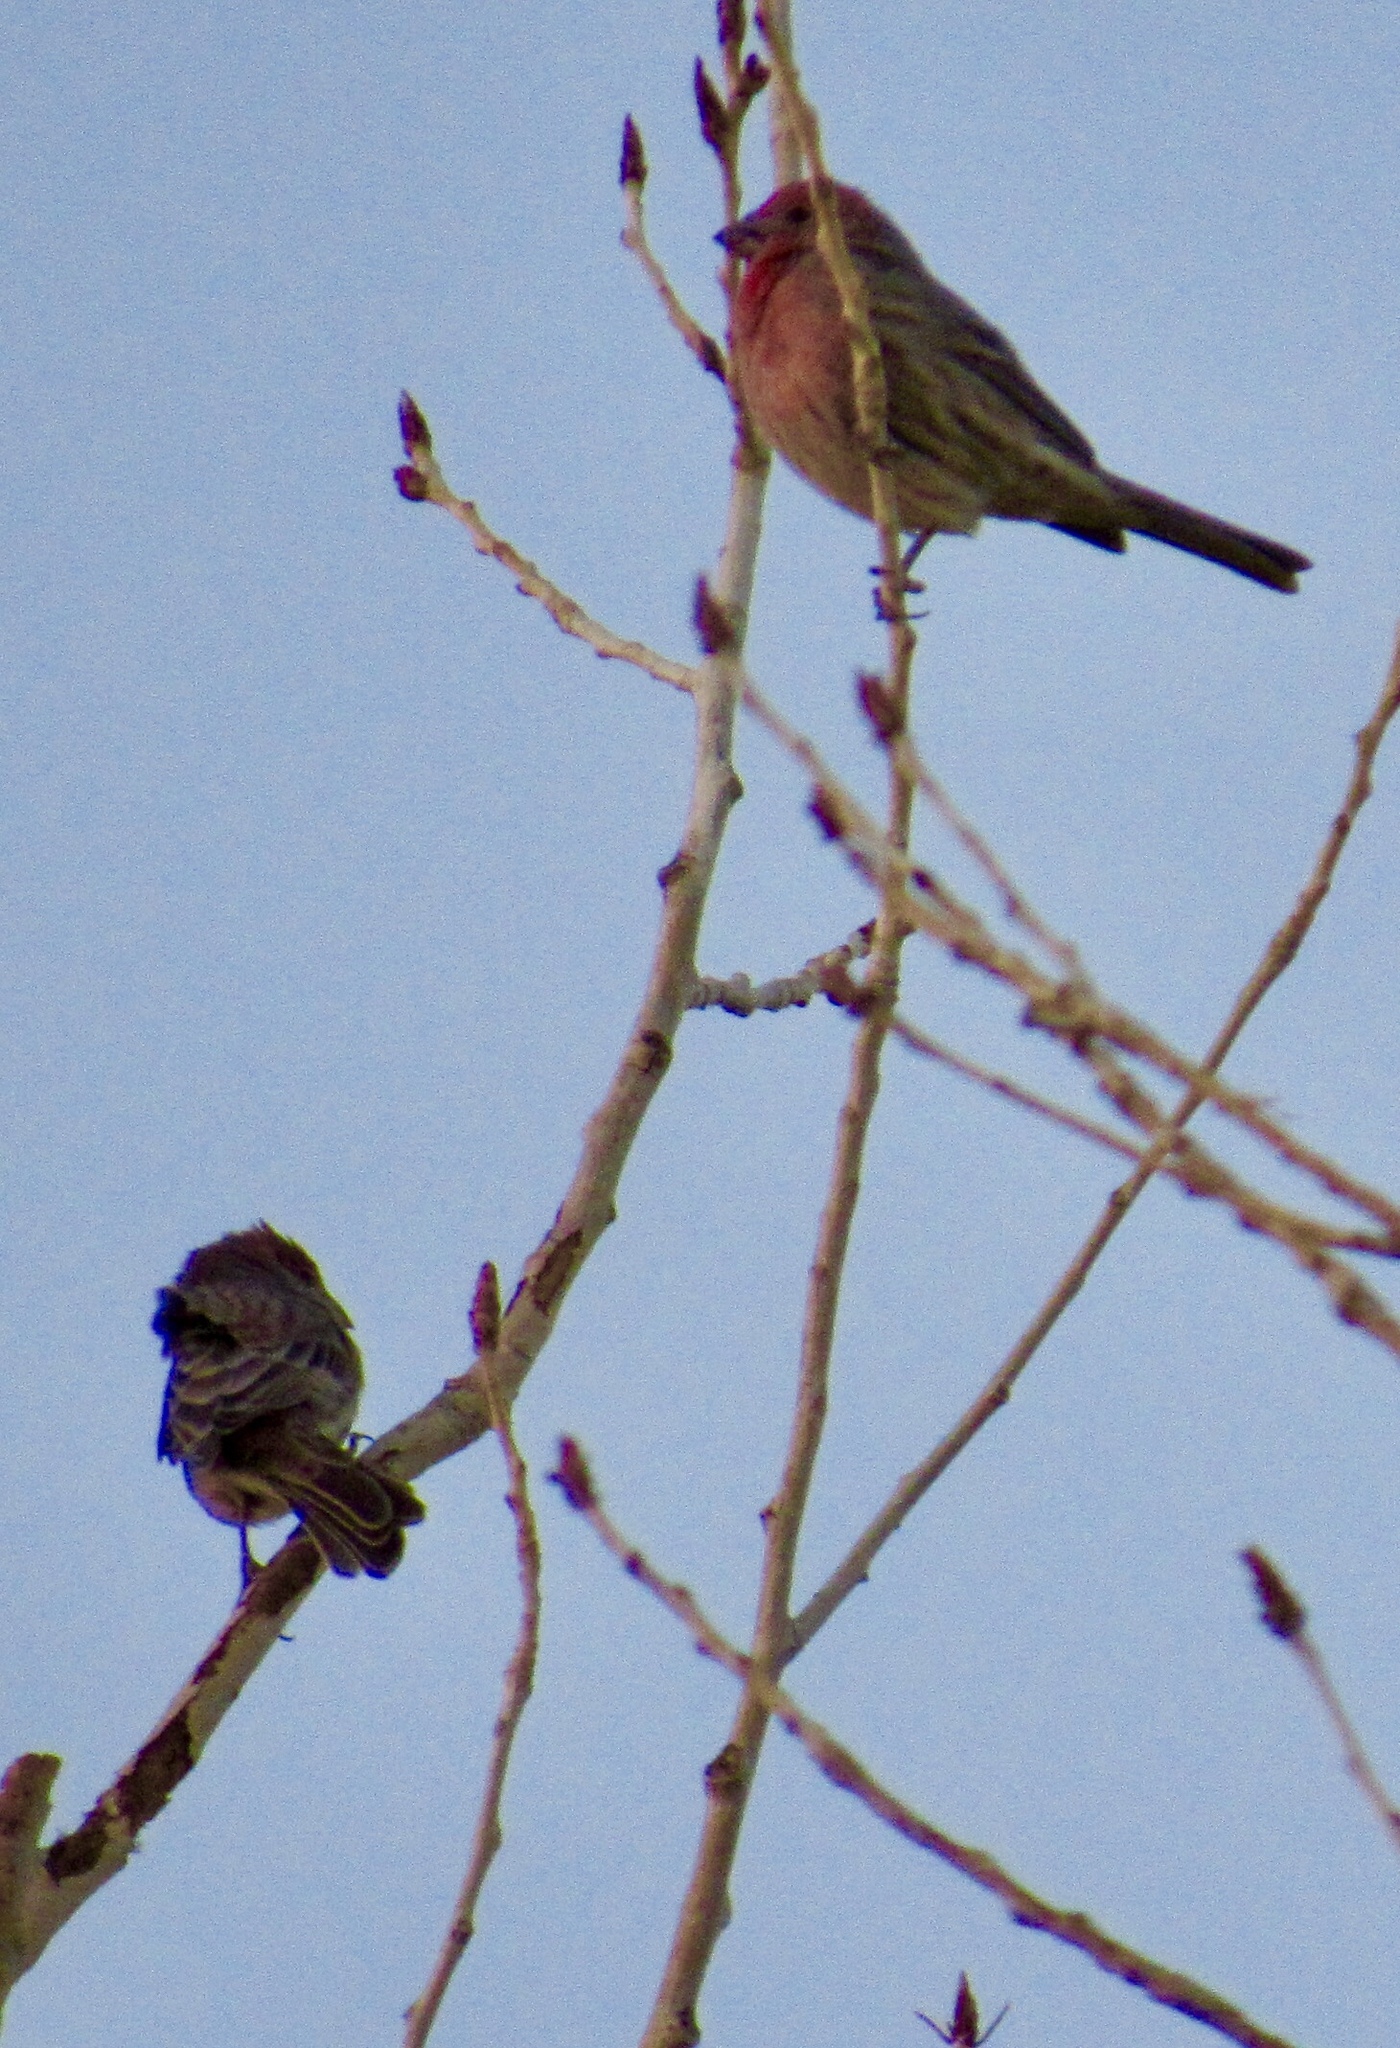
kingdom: Animalia
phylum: Chordata
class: Aves
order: Passeriformes
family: Fringillidae
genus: Haemorhous
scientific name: Haemorhous mexicanus
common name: House finch
